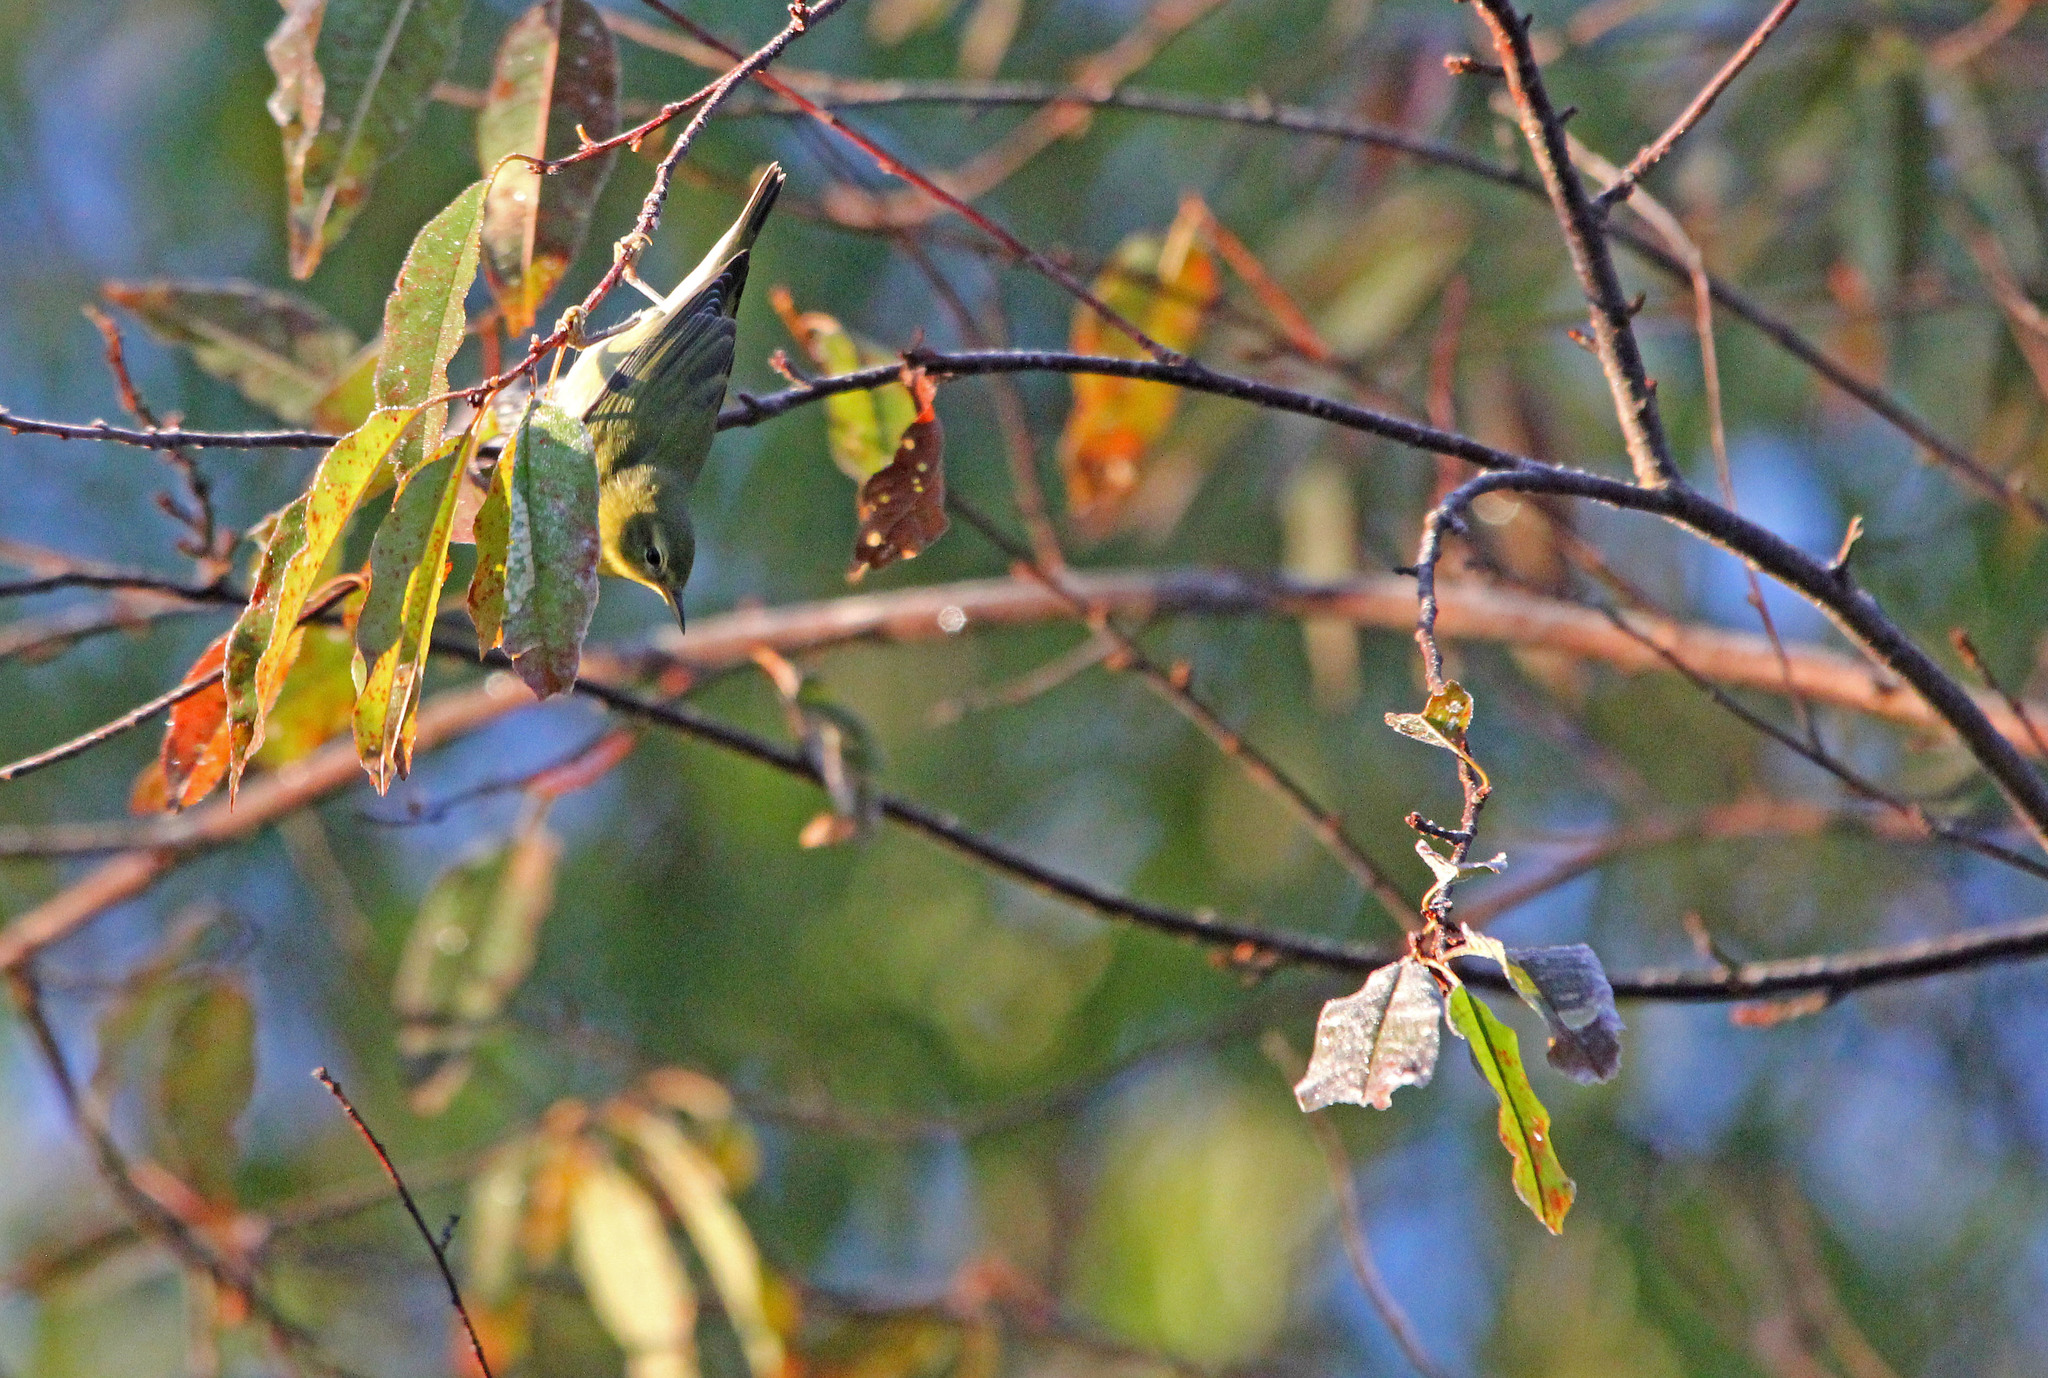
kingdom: Animalia
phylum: Chordata
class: Aves
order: Passeriformes
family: Parulidae
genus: Leiothlypis
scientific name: Leiothlypis peregrina
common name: Tennessee warbler
